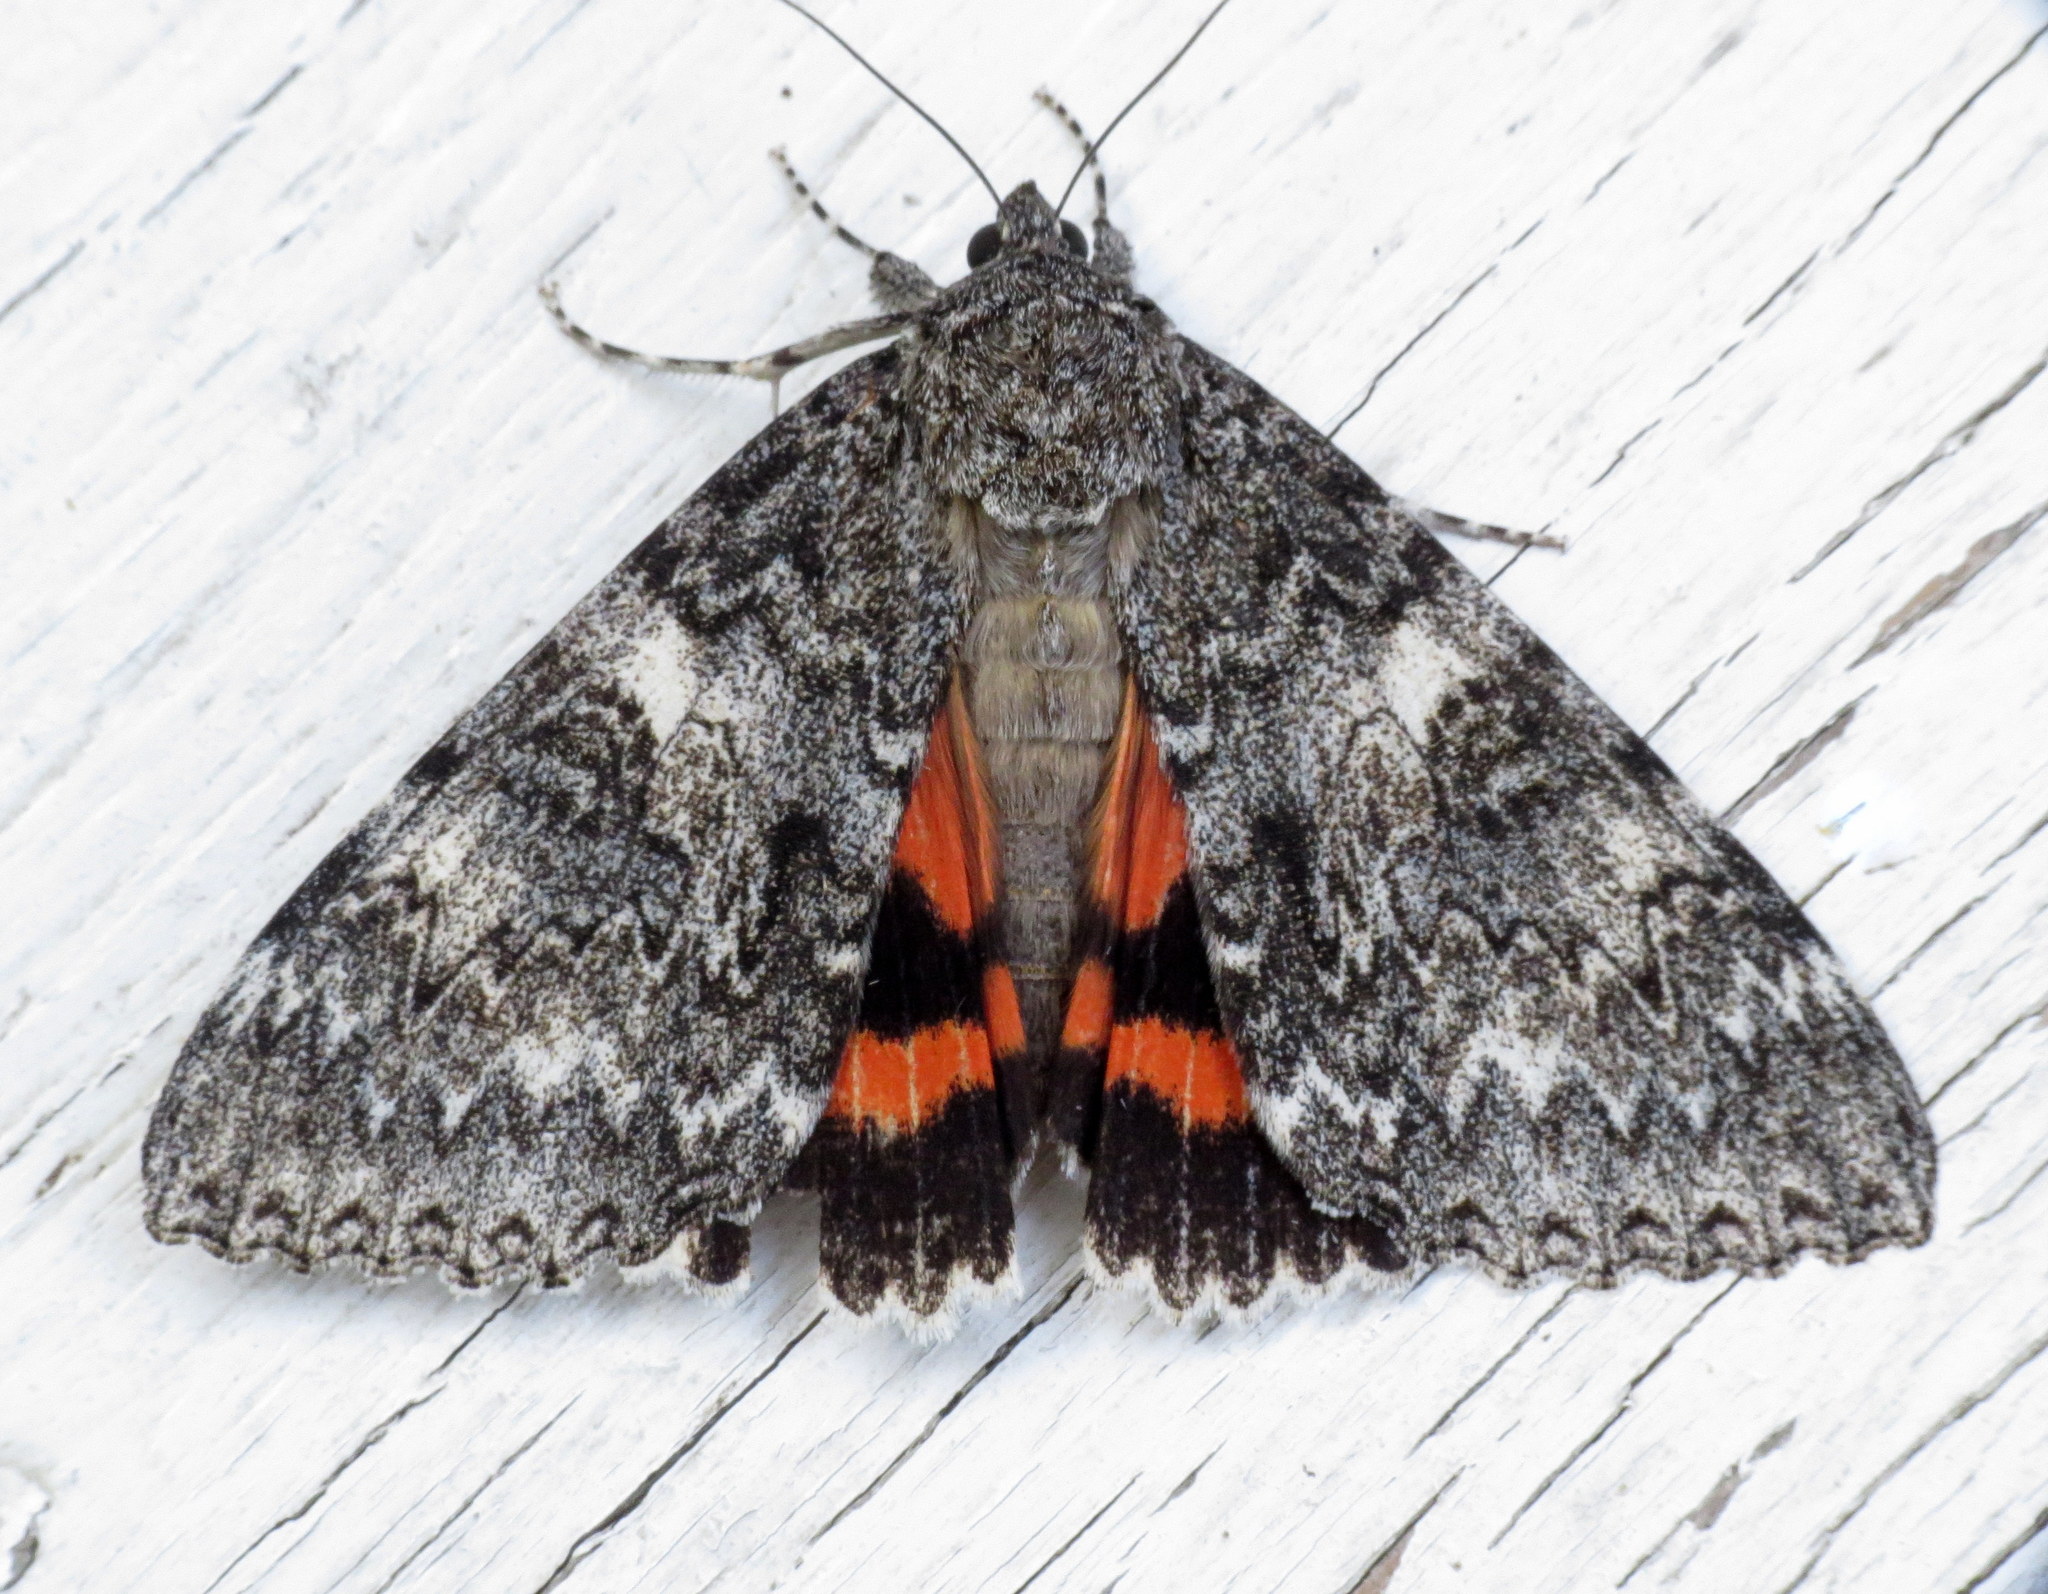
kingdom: Animalia
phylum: Arthropoda
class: Insecta
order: Lepidoptera
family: Erebidae
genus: Catocala
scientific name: Catocala unijuga
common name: Once-married underwing
